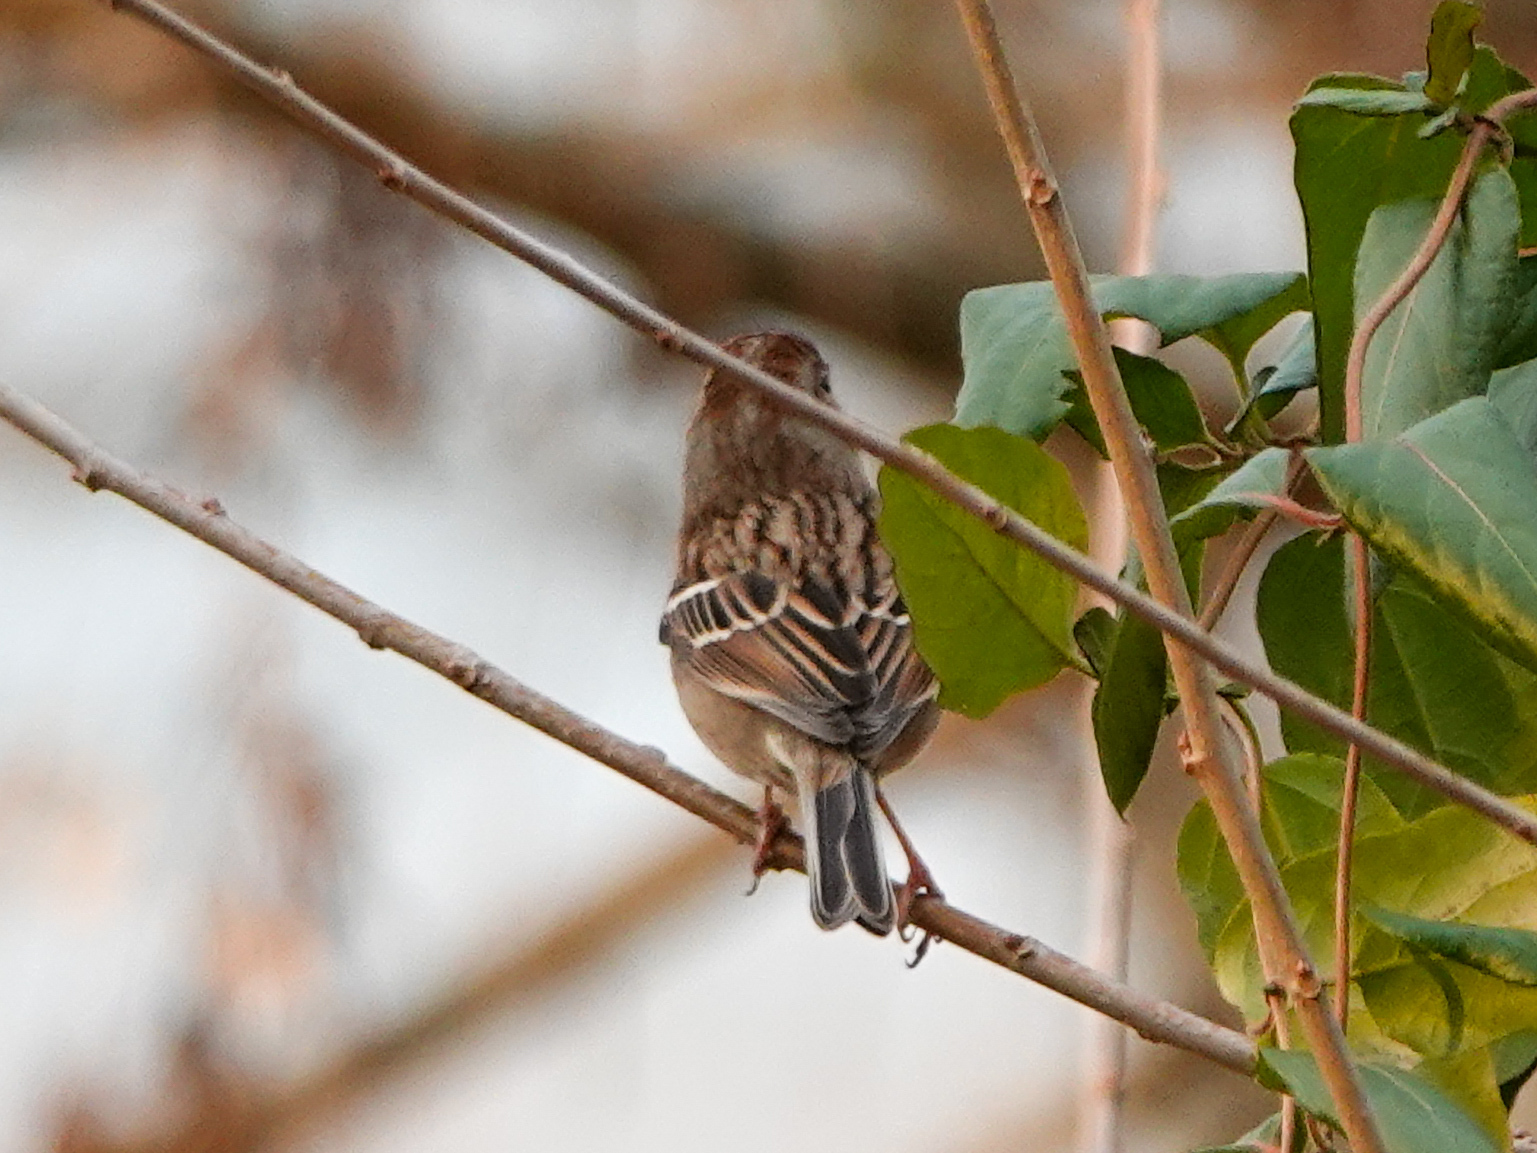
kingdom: Animalia
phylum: Chordata
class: Aves
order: Passeriformes
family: Passerellidae
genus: Spizella
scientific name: Spizella pusilla
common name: Field sparrow
